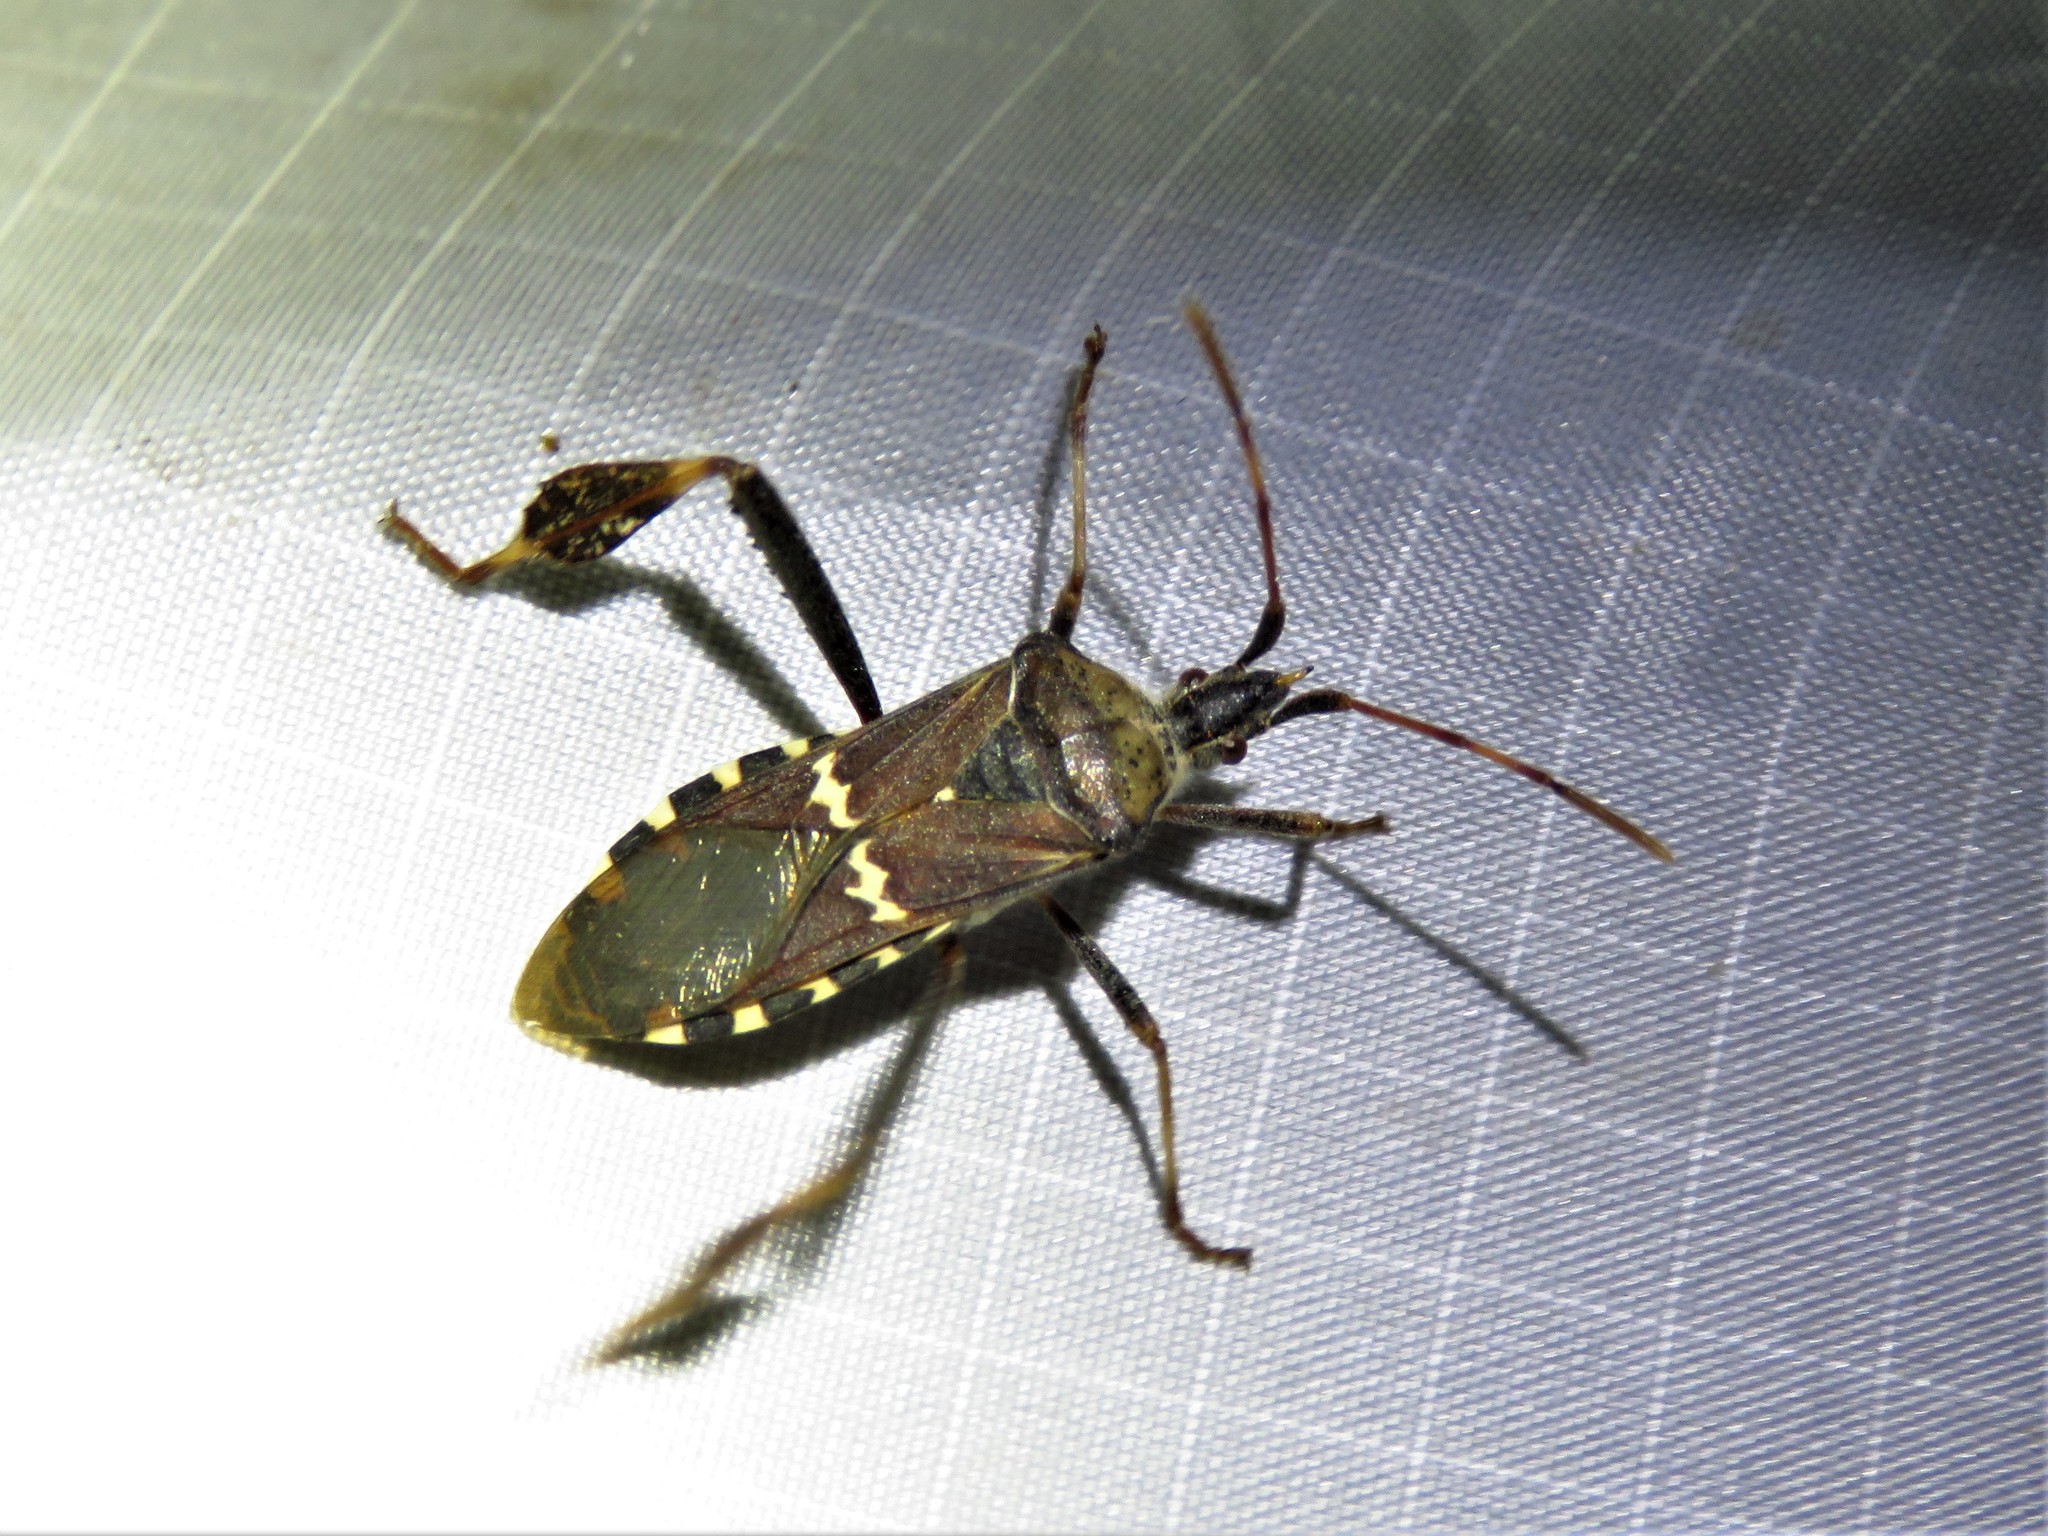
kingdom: Animalia
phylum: Arthropoda
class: Insecta
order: Hemiptera
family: Coreidae
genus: Leptoglossus
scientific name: Leptoglossus clypealis
